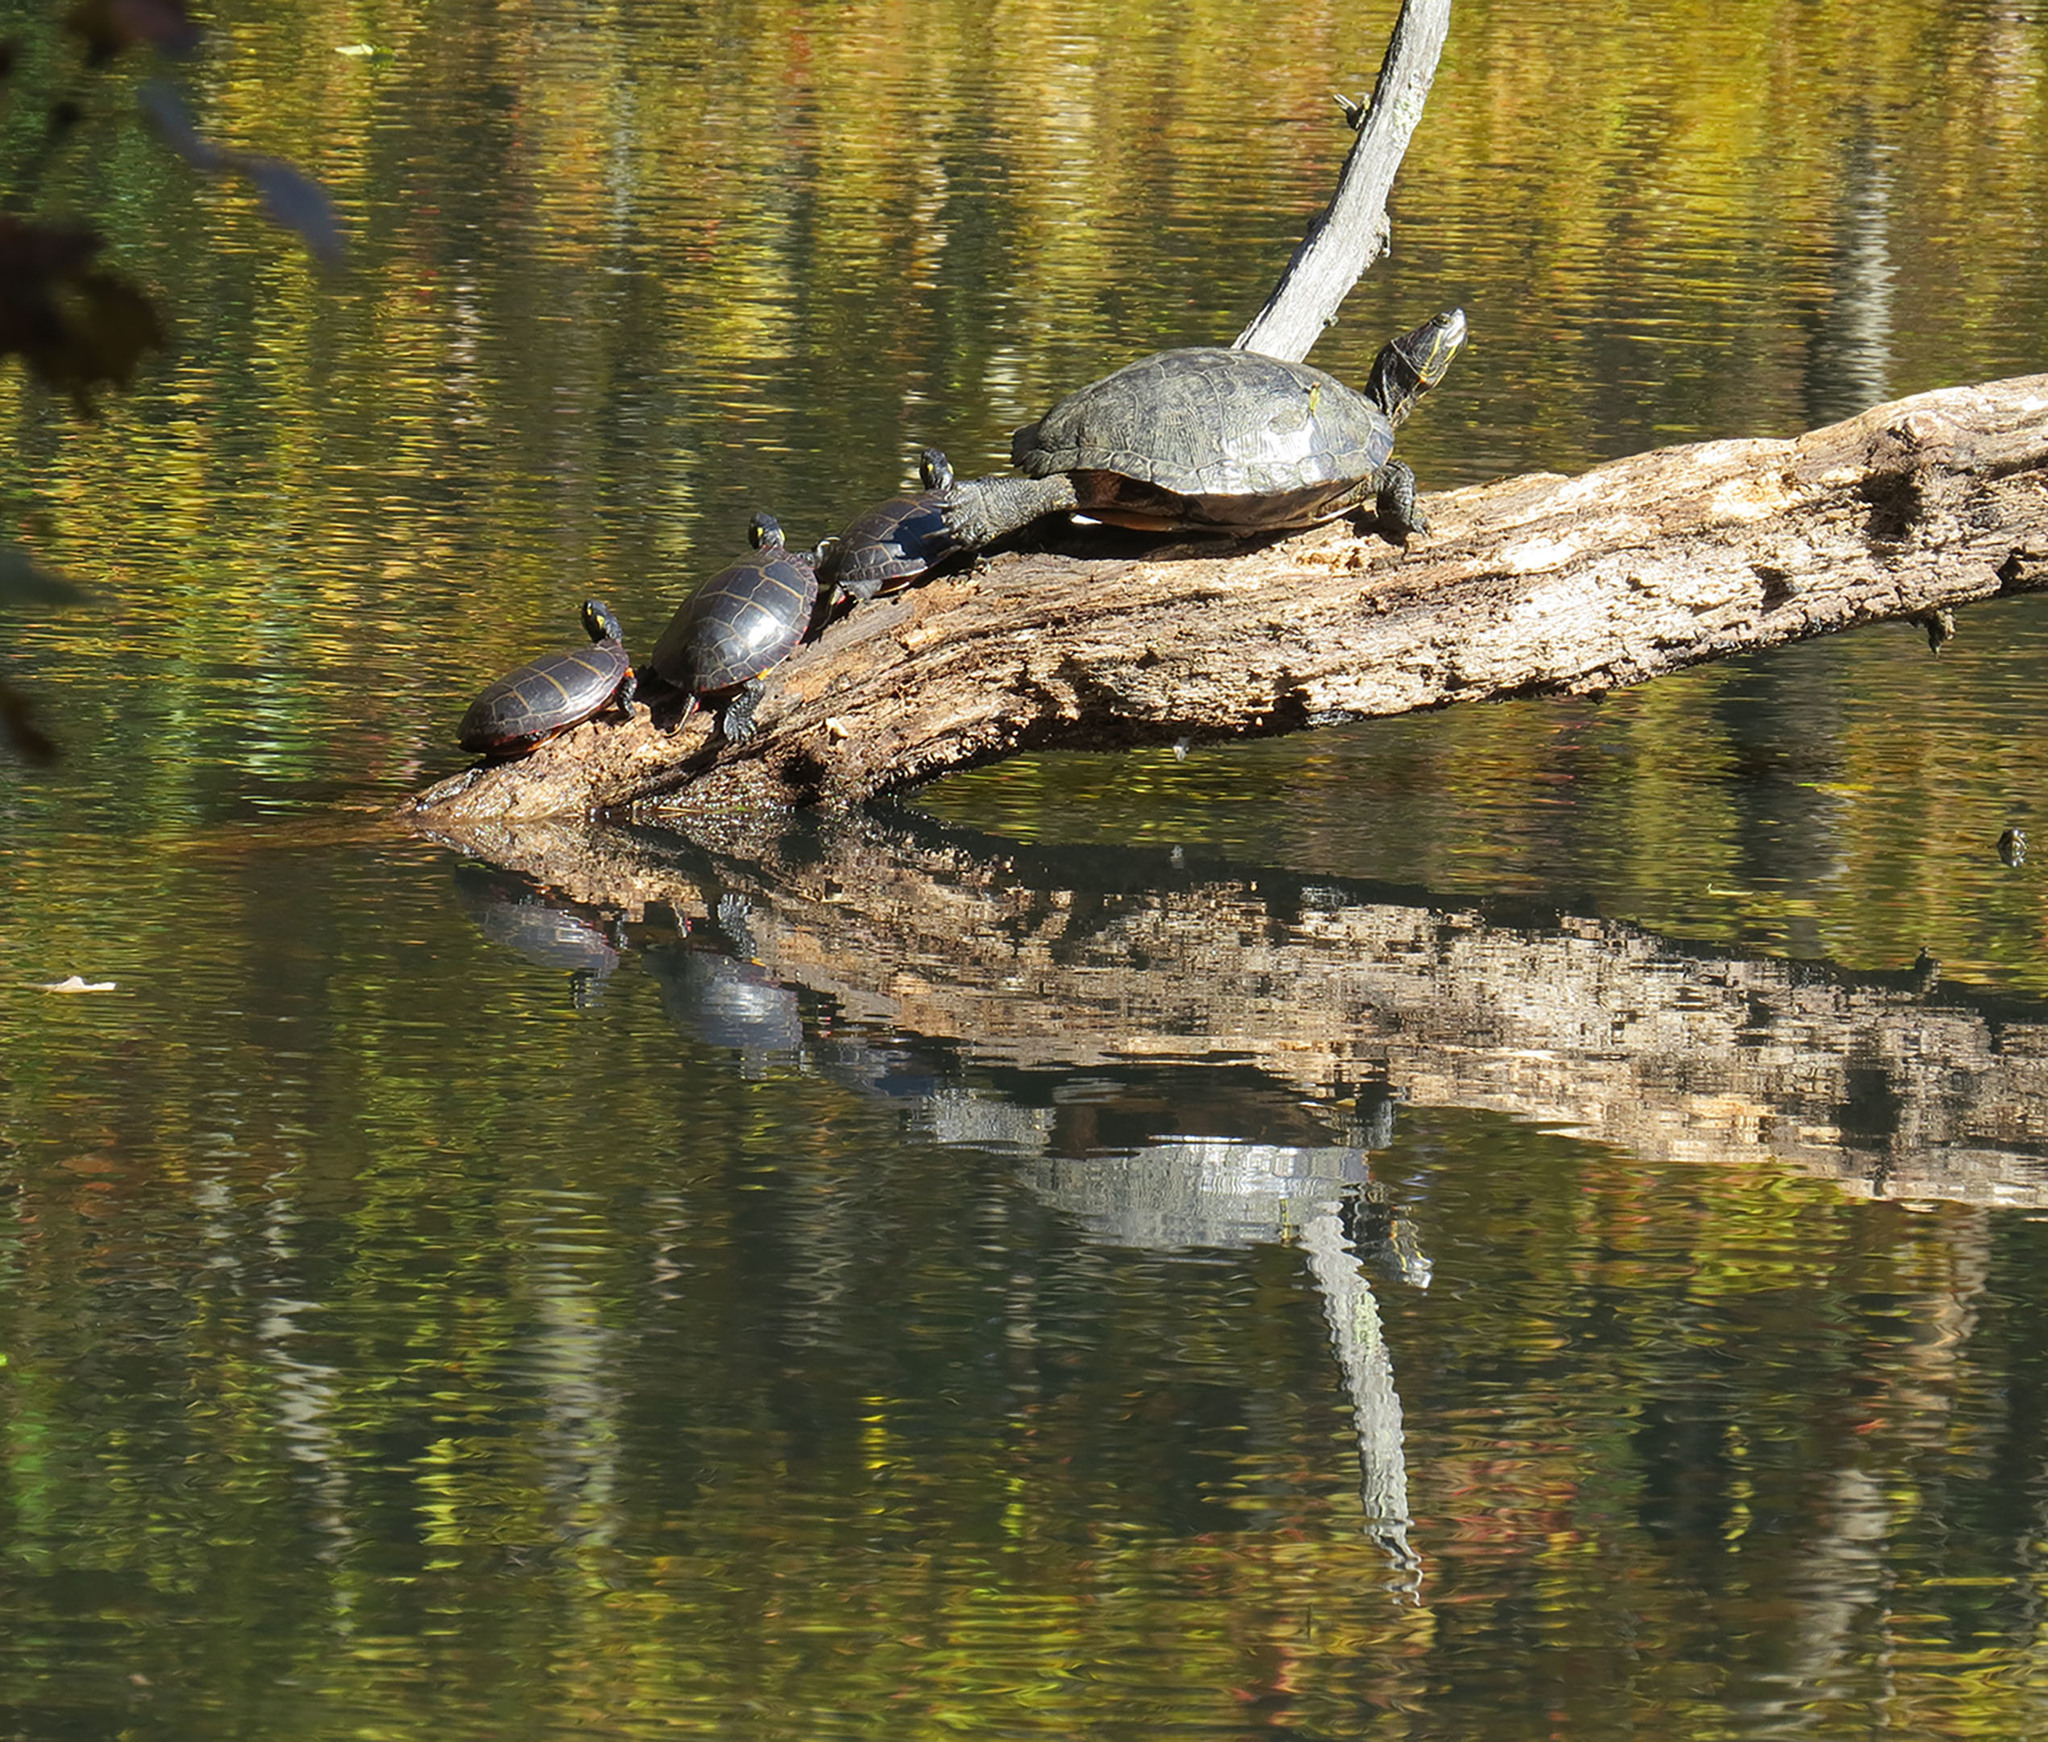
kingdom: Animalia
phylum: Chordata
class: Testudines
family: Emydidae
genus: Chrysemys
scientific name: Chrysemys picta
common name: Painted turtle
